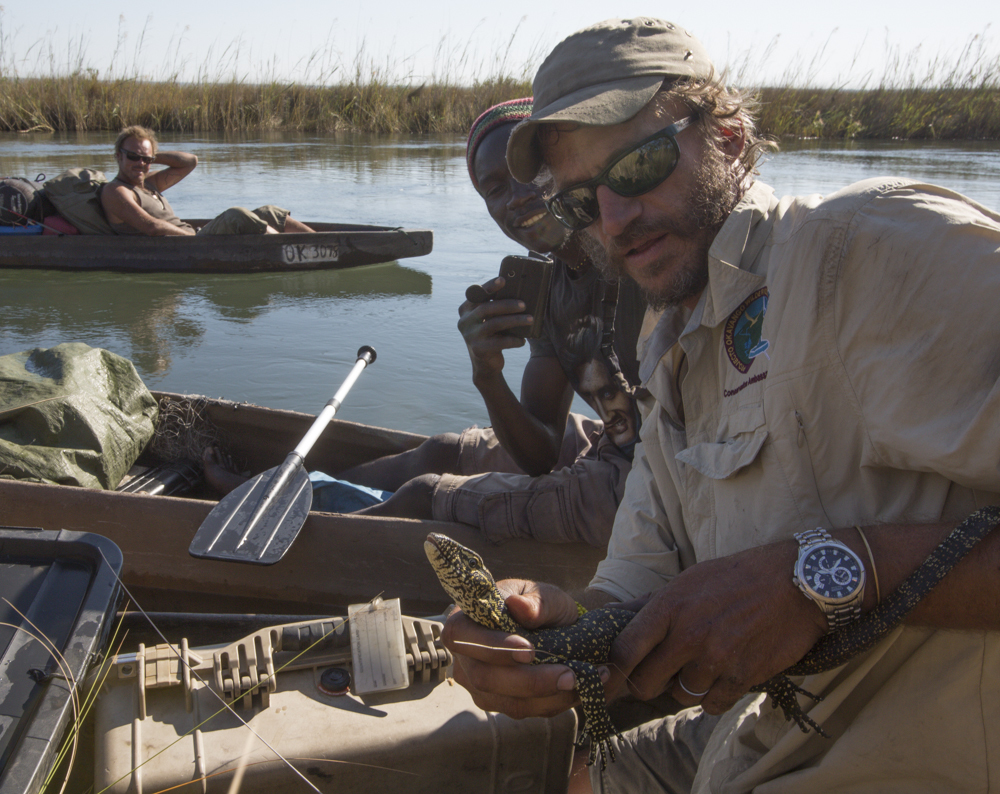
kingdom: Animalia
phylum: Chordata
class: Squamata
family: Varanidae
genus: Varanus
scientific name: Varanus niloticus
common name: Nile monitor
